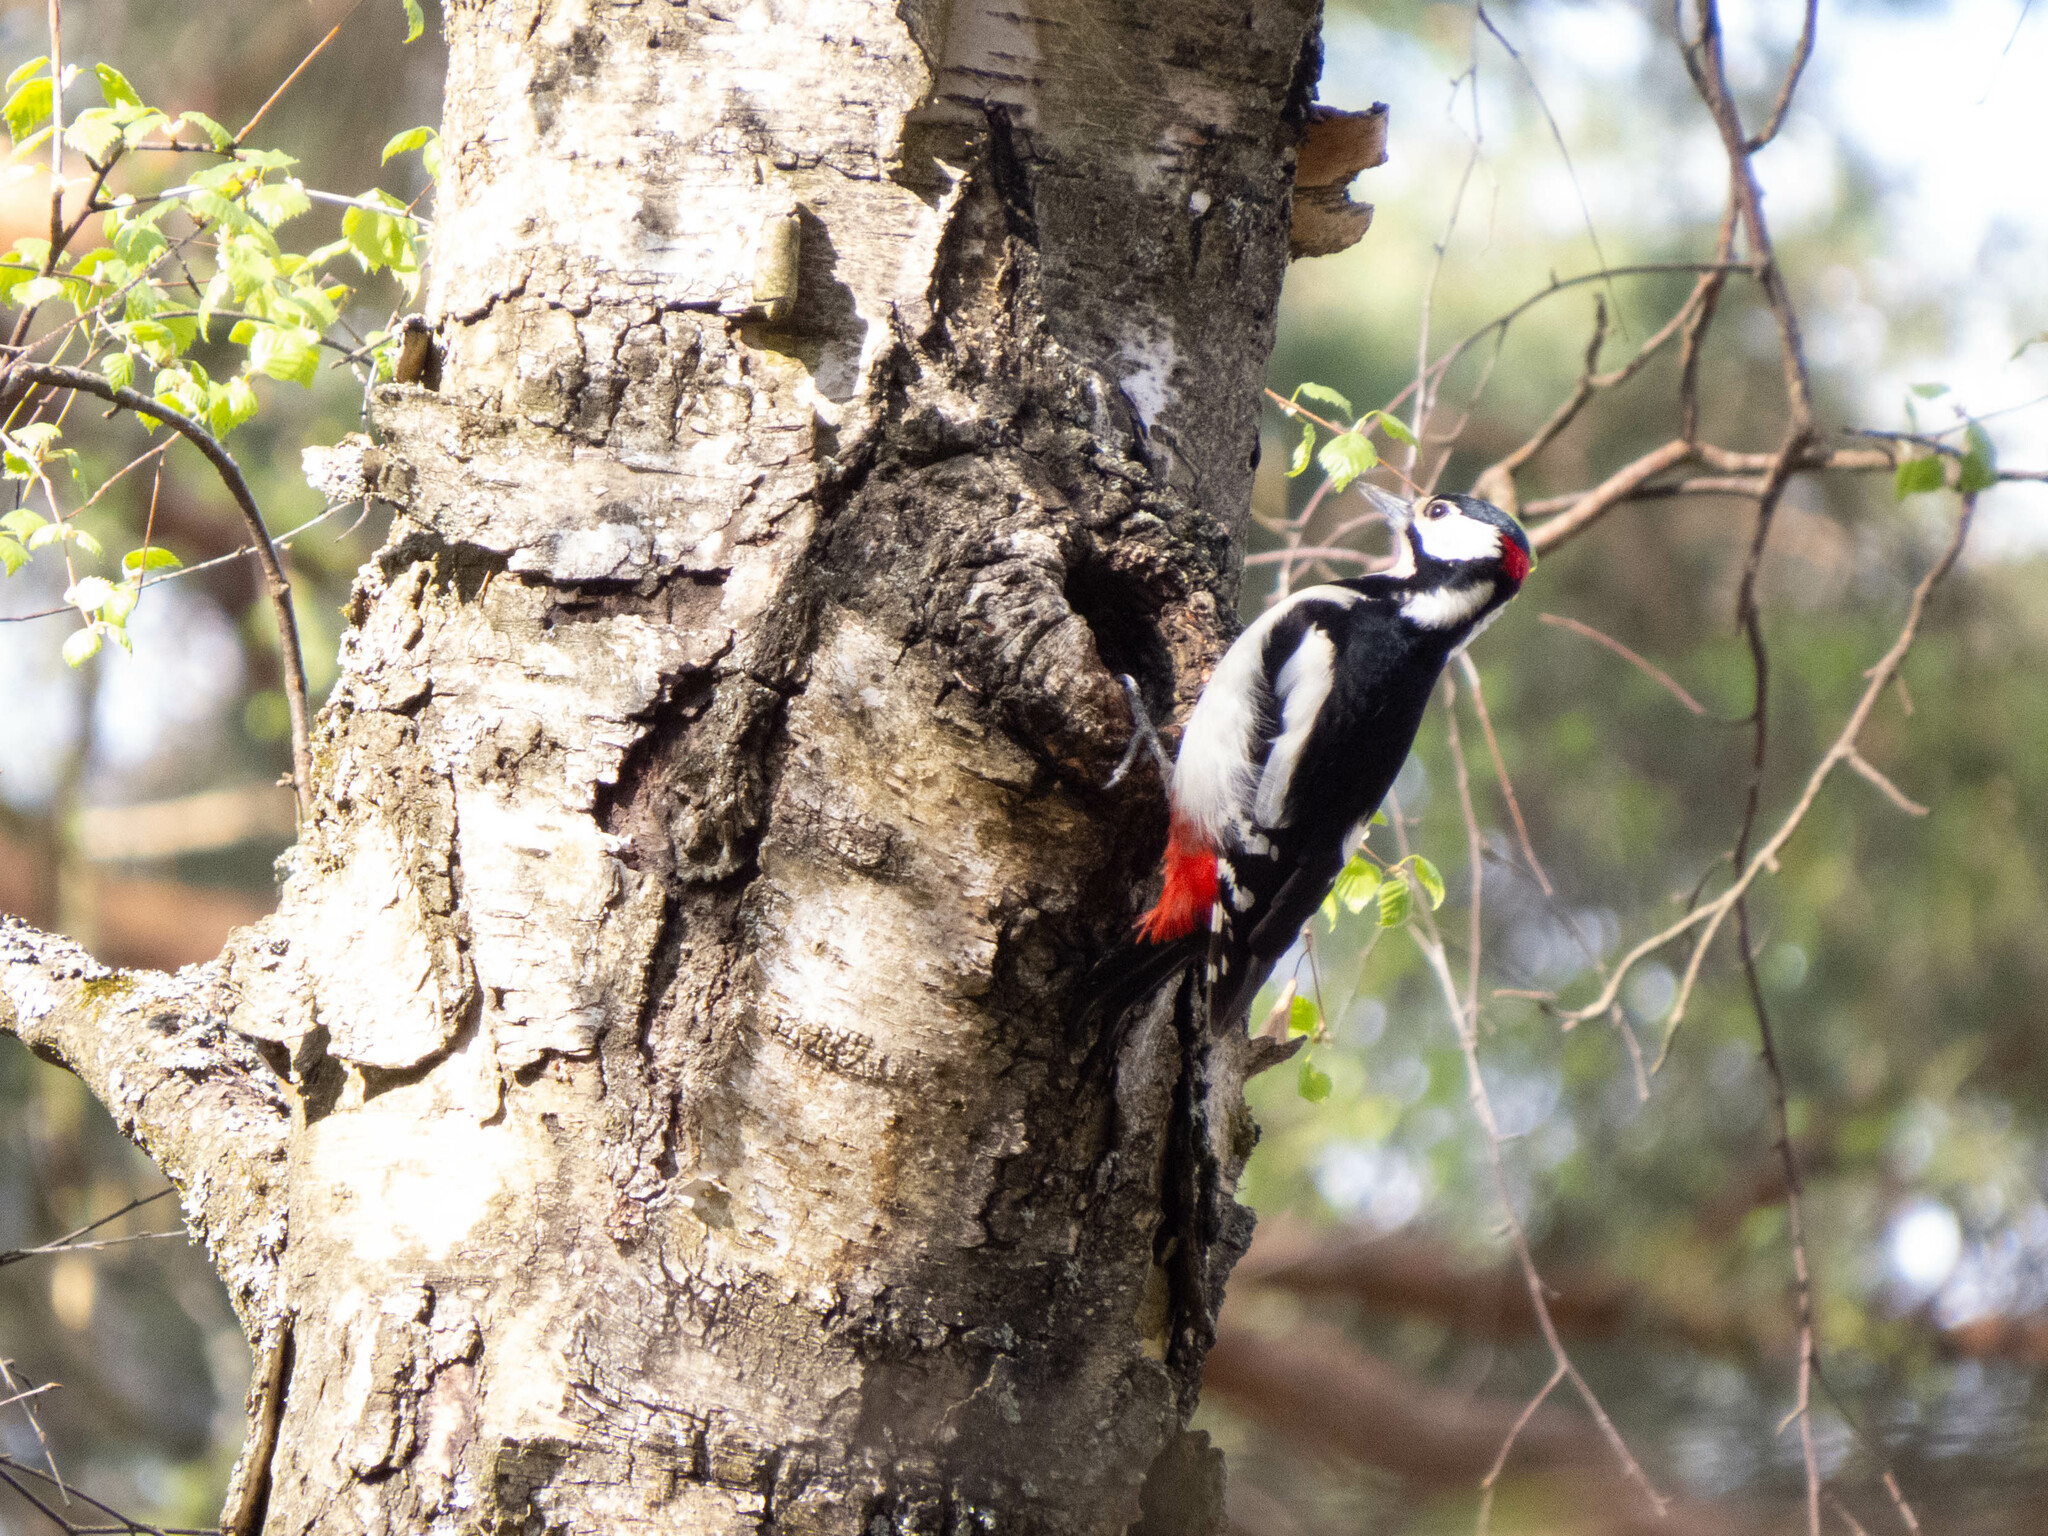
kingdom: Animalia
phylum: Chordata
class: Aves
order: Piciformes
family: Picidae
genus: Dendrocopos
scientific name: Dendrocopos major
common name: Great spotted woodpecker
